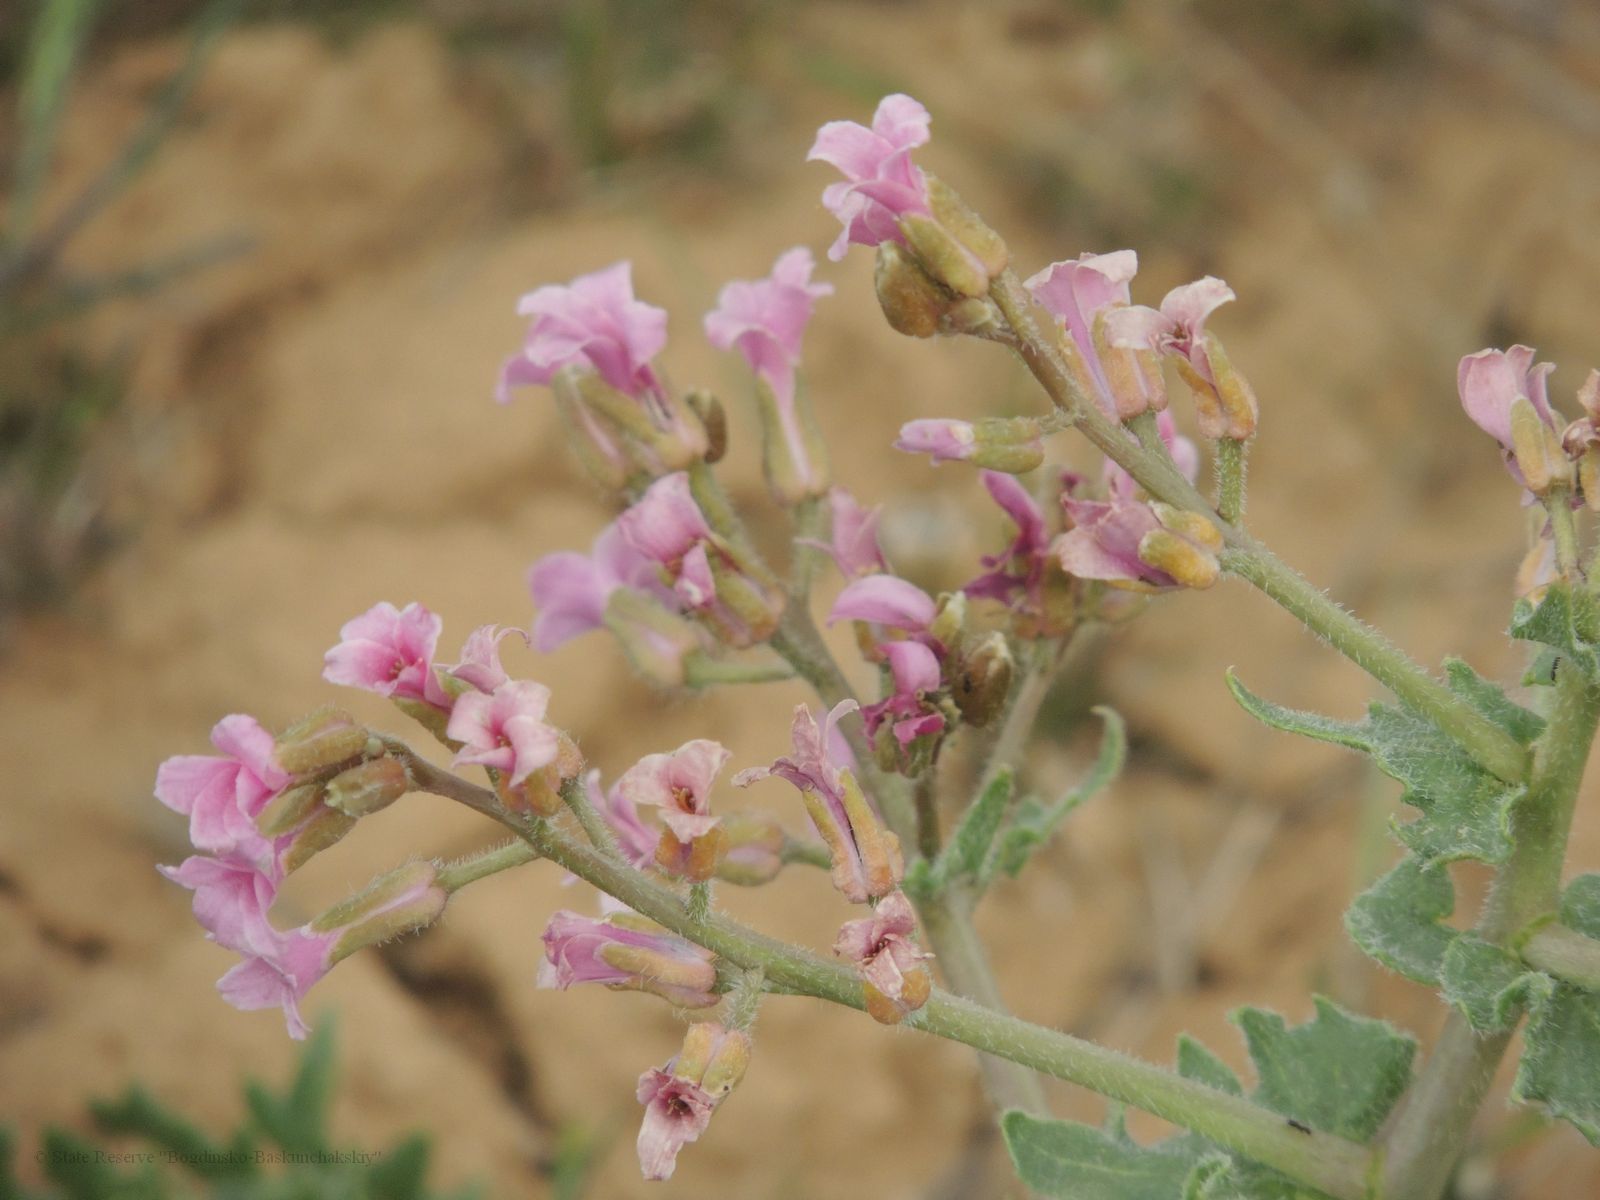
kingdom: Plantae
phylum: Tracheophyta
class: Magnoliopsida
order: Brassicales
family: Brassicaceae
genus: Megacarpaea
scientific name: Megacarpaea megalocarpa
